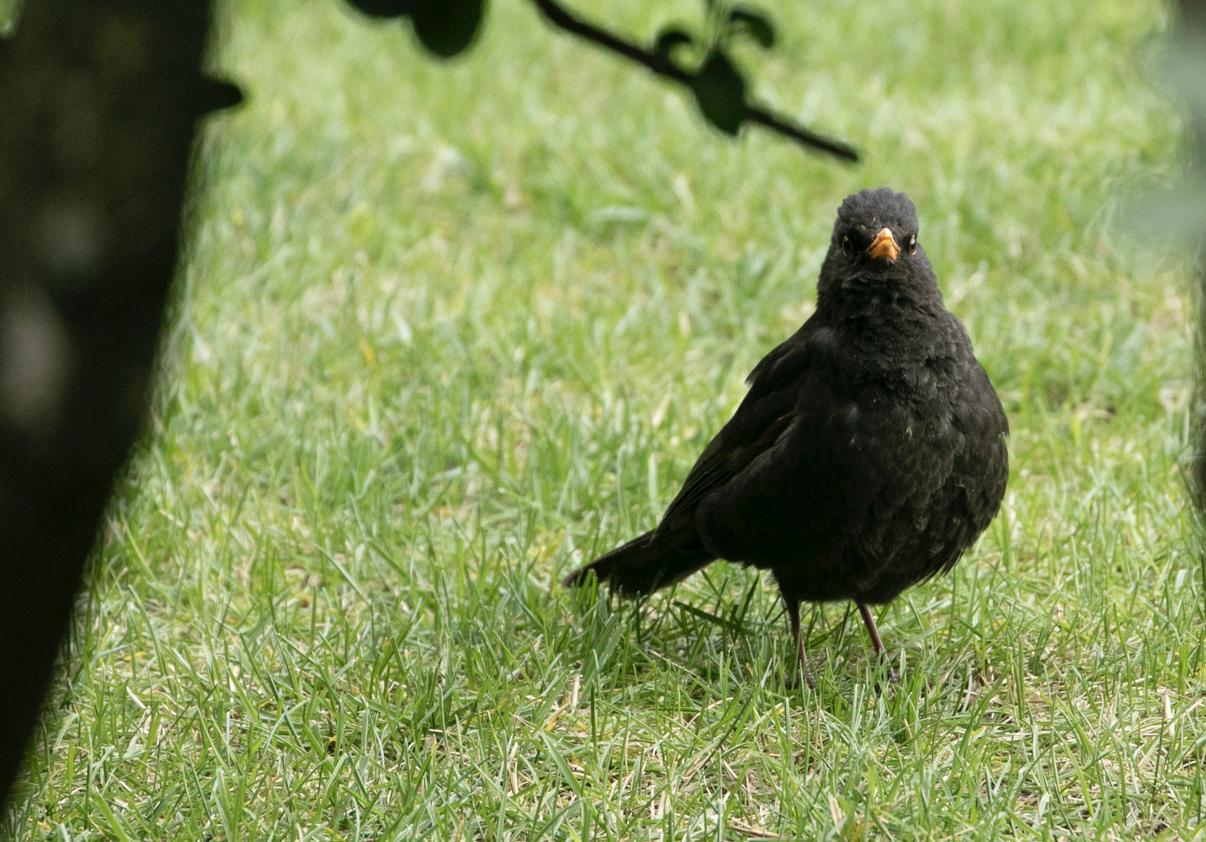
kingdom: Animalia
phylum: Chordata
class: Aves
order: Passeriformes
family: Turdidae
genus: Turdus
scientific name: Turdus merula
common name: Common blackbird
